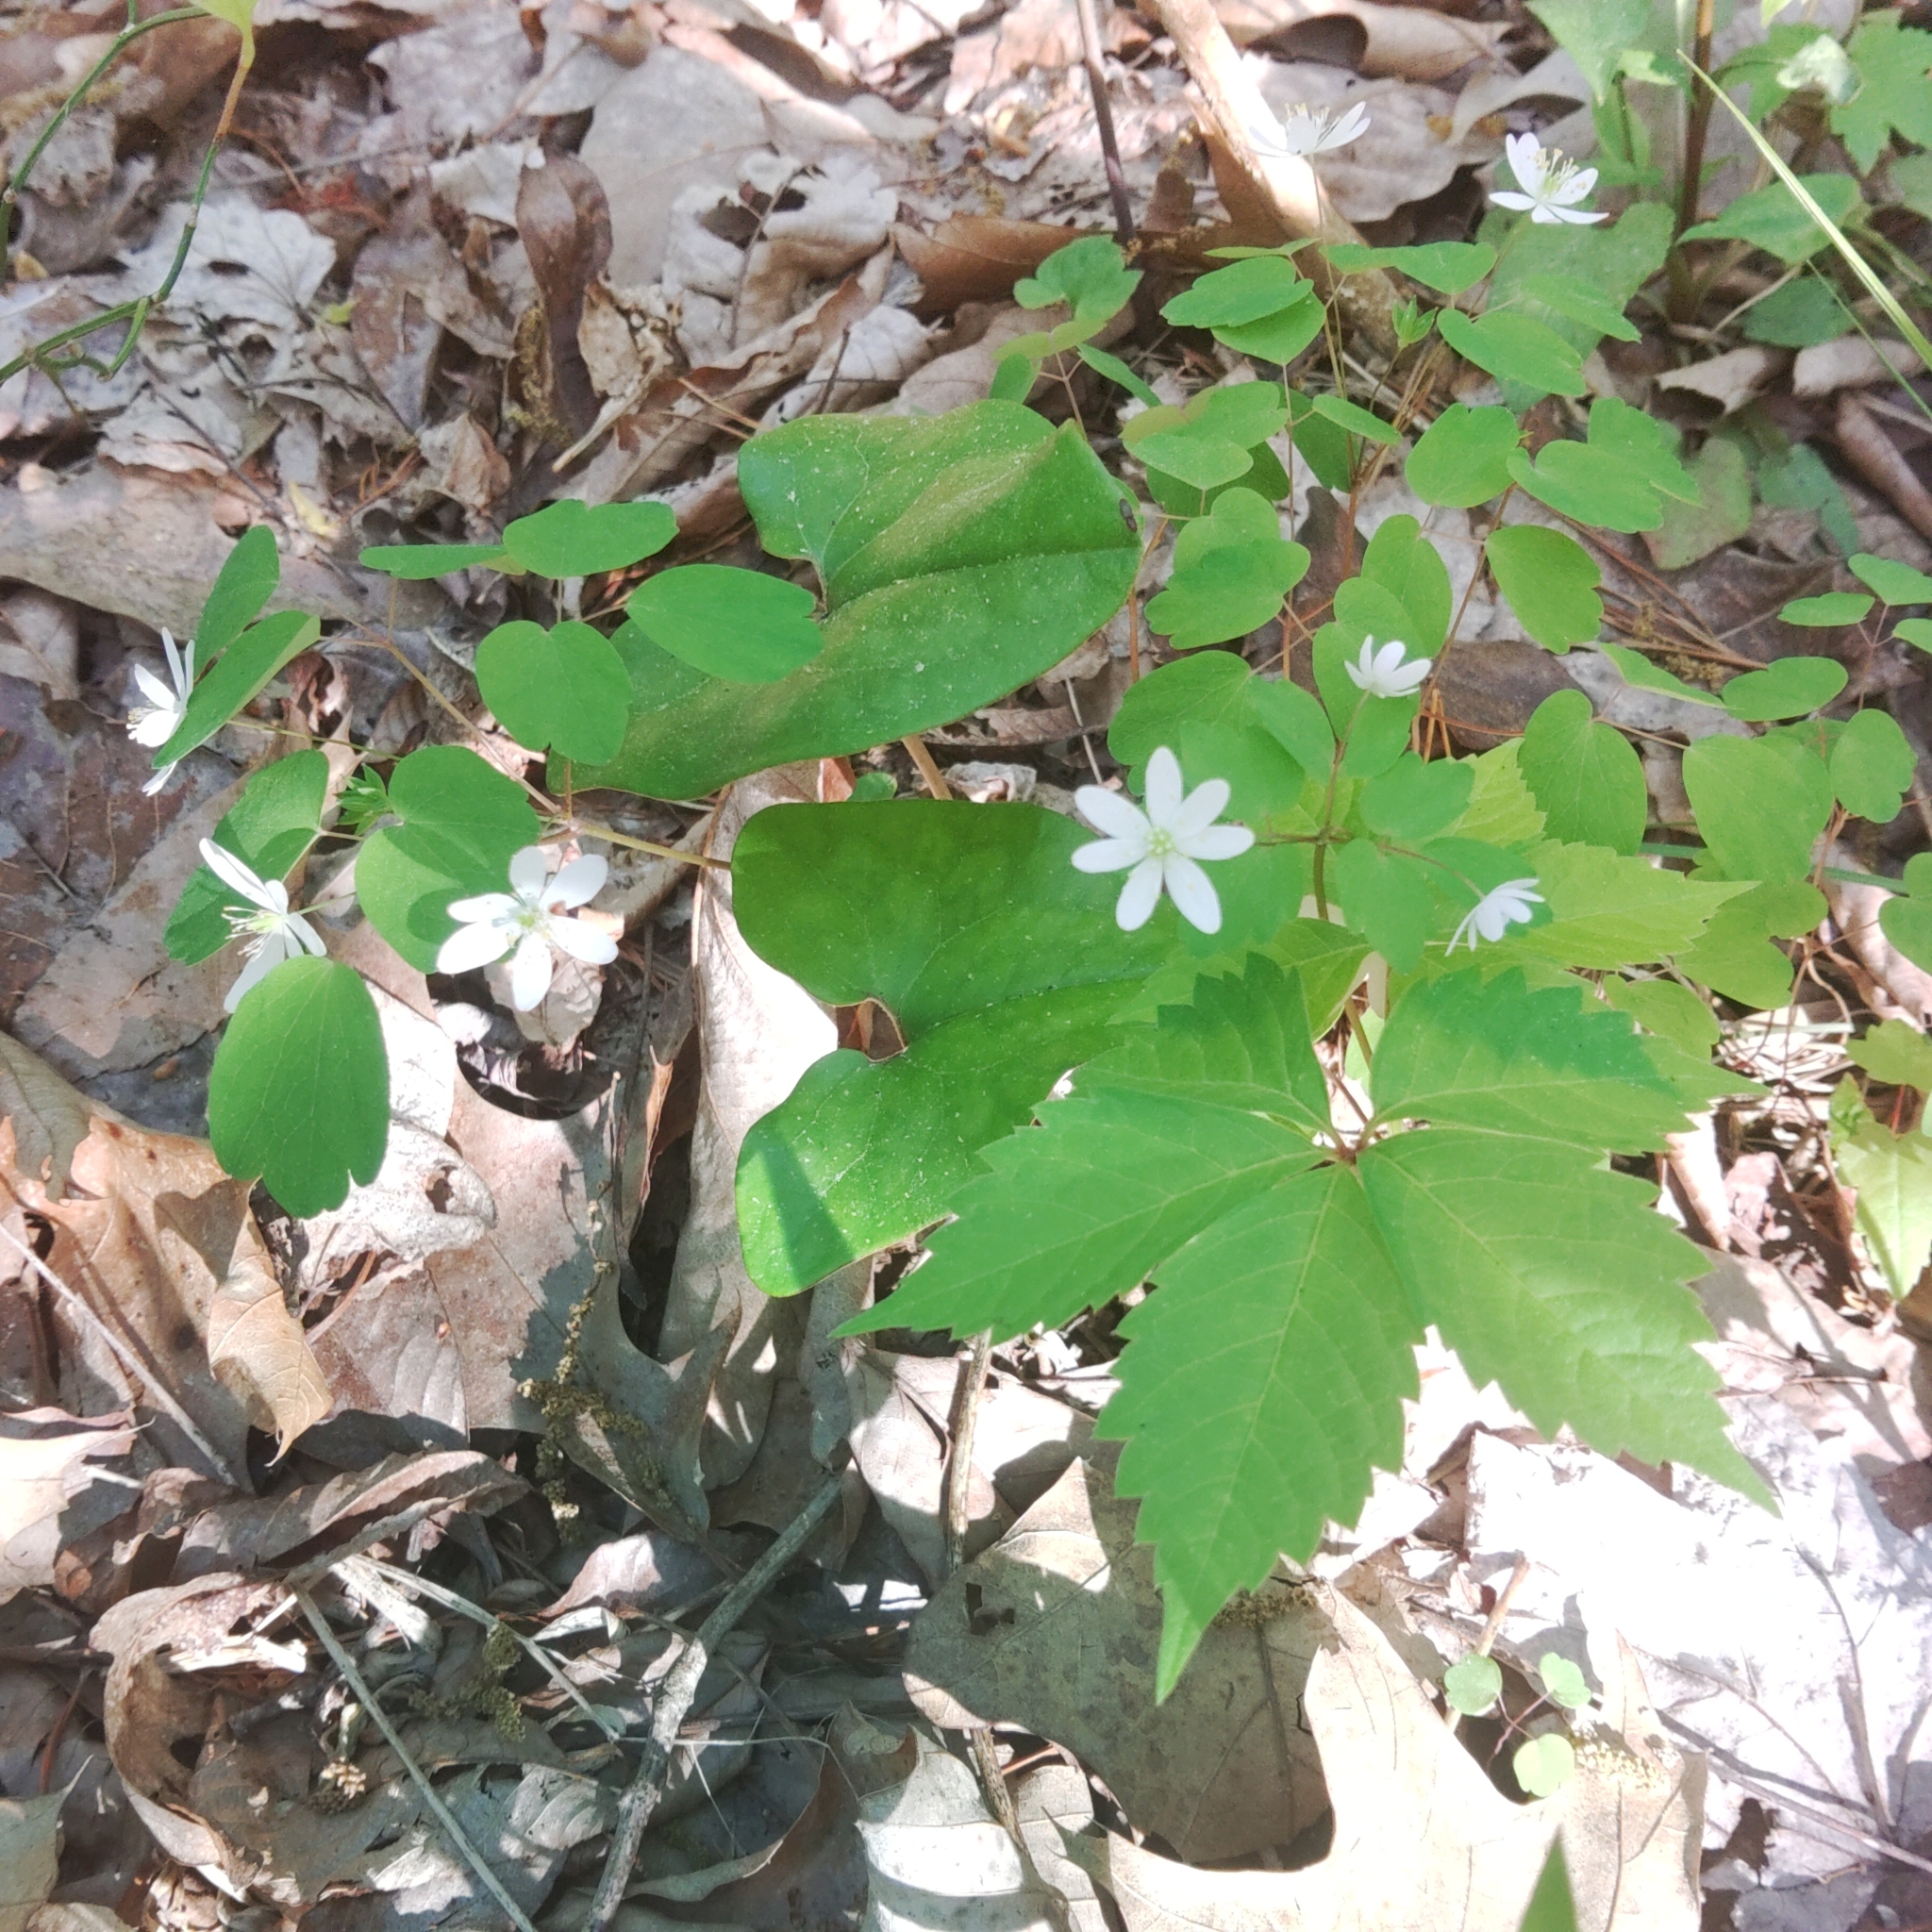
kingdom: Plantae
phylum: Tracheophyta
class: Magnoliopsida
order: Ranunculales
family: Ranunculaceae
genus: Thalictrum
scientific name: Thalictrum thalictroides
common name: Rue-anemone
